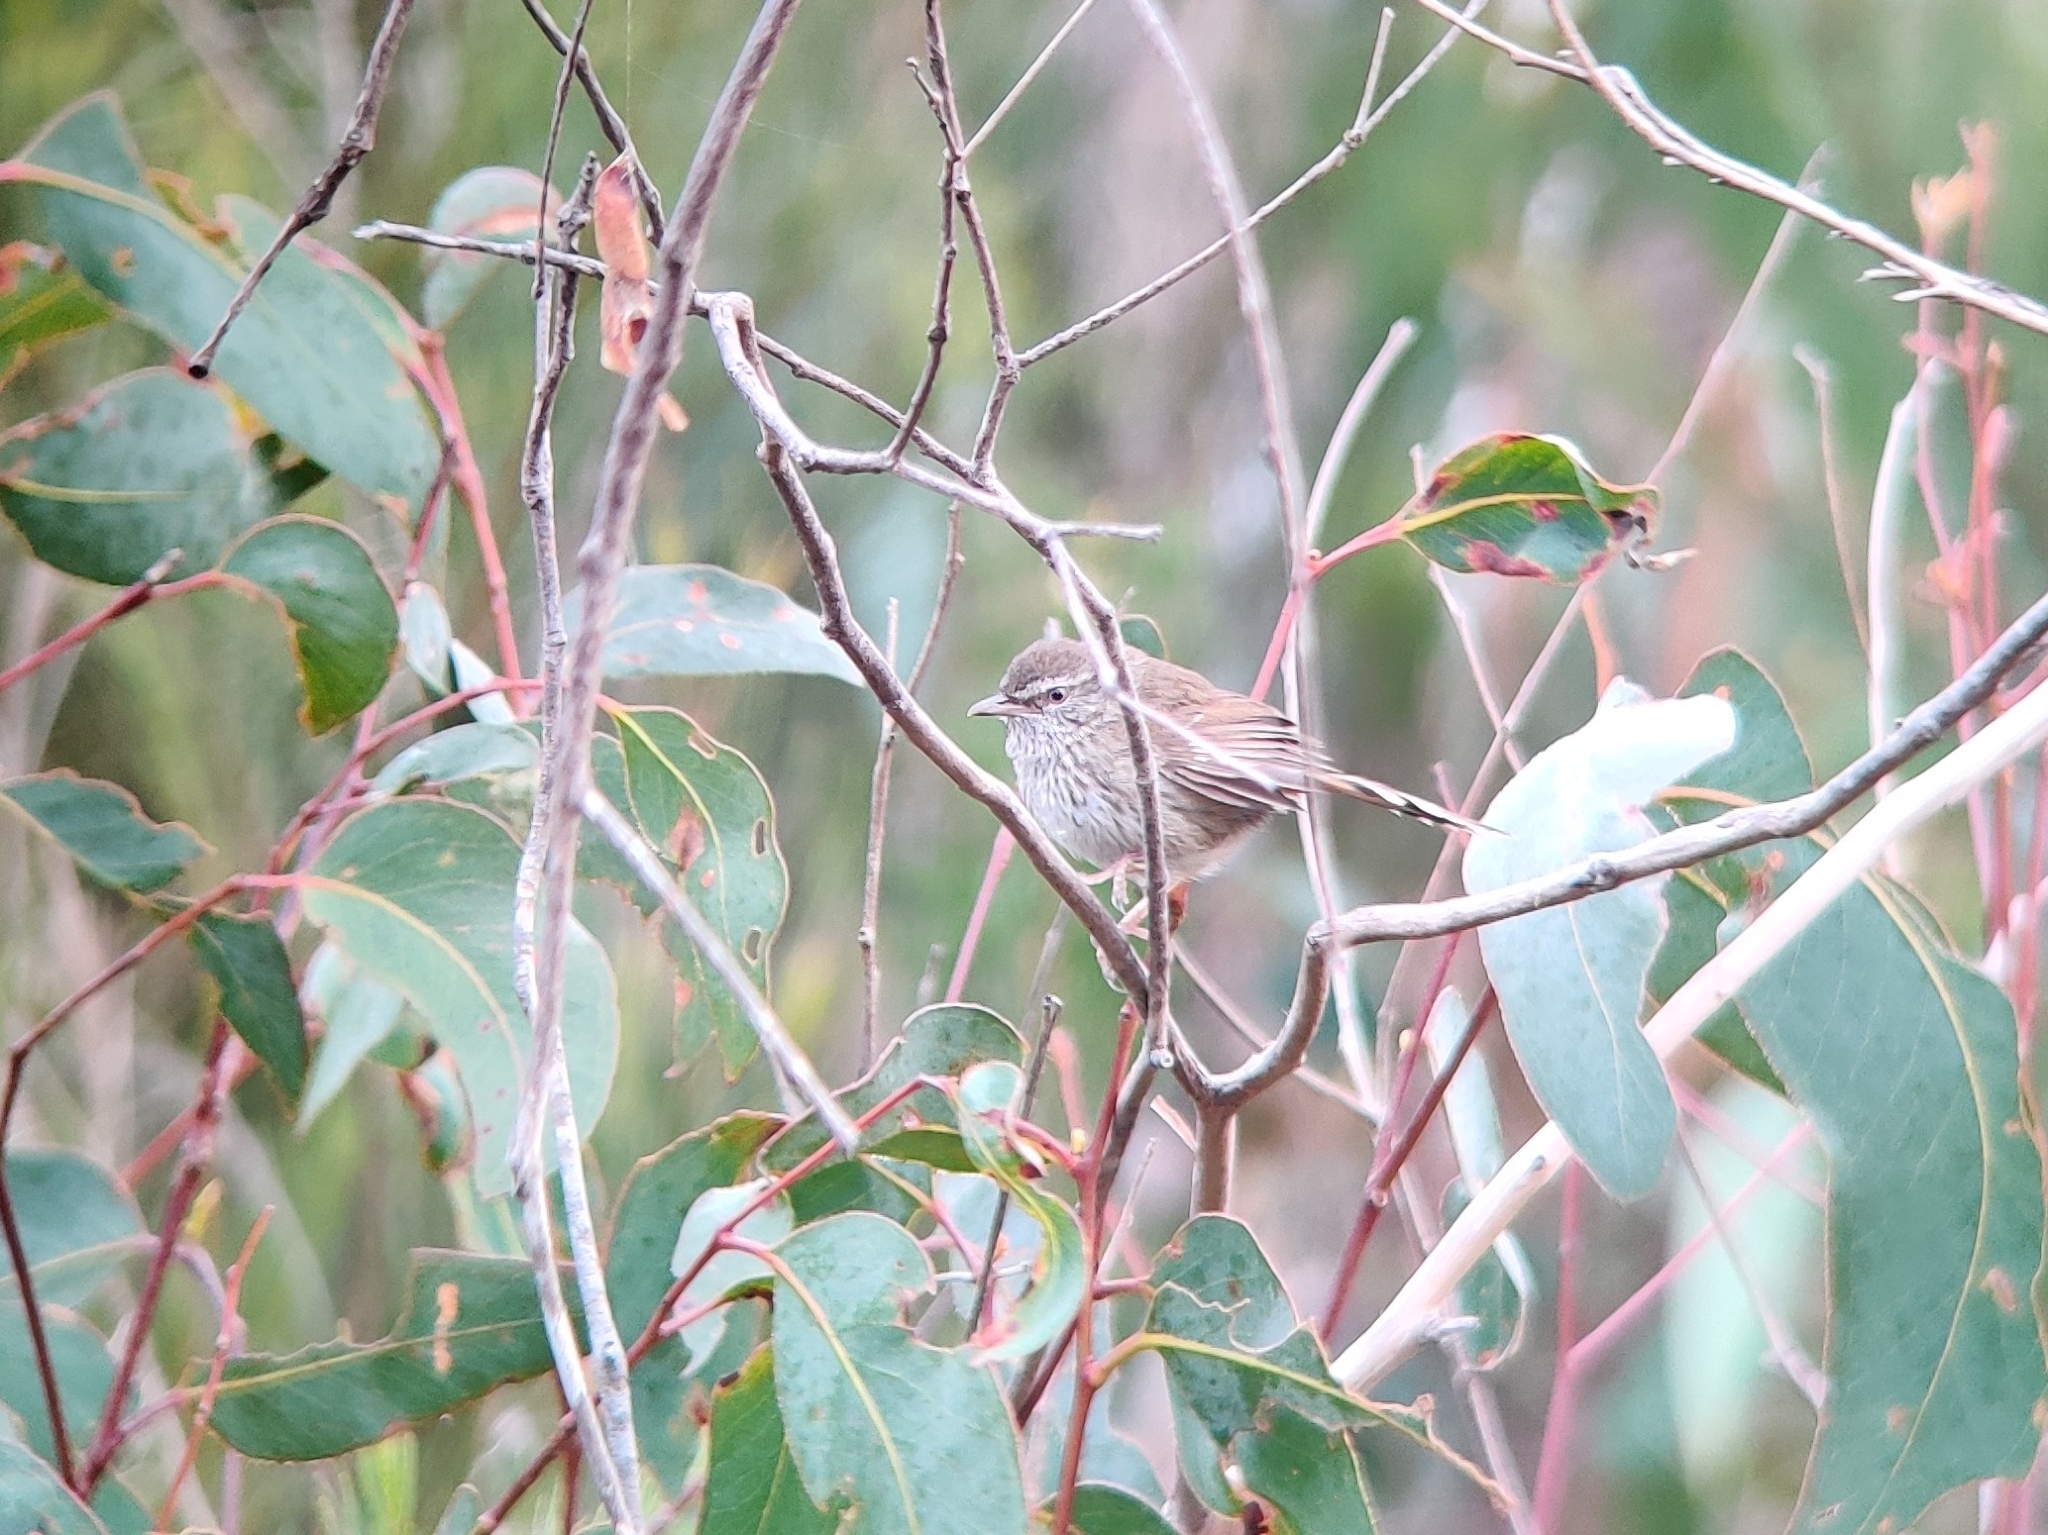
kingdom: Animalia
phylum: Chordata
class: Aves
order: Passeriformes
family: Acanthizidae
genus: Calamanthus
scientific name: Calamanthus pyrrhopygius
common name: Chestnut-rumped heathwren
